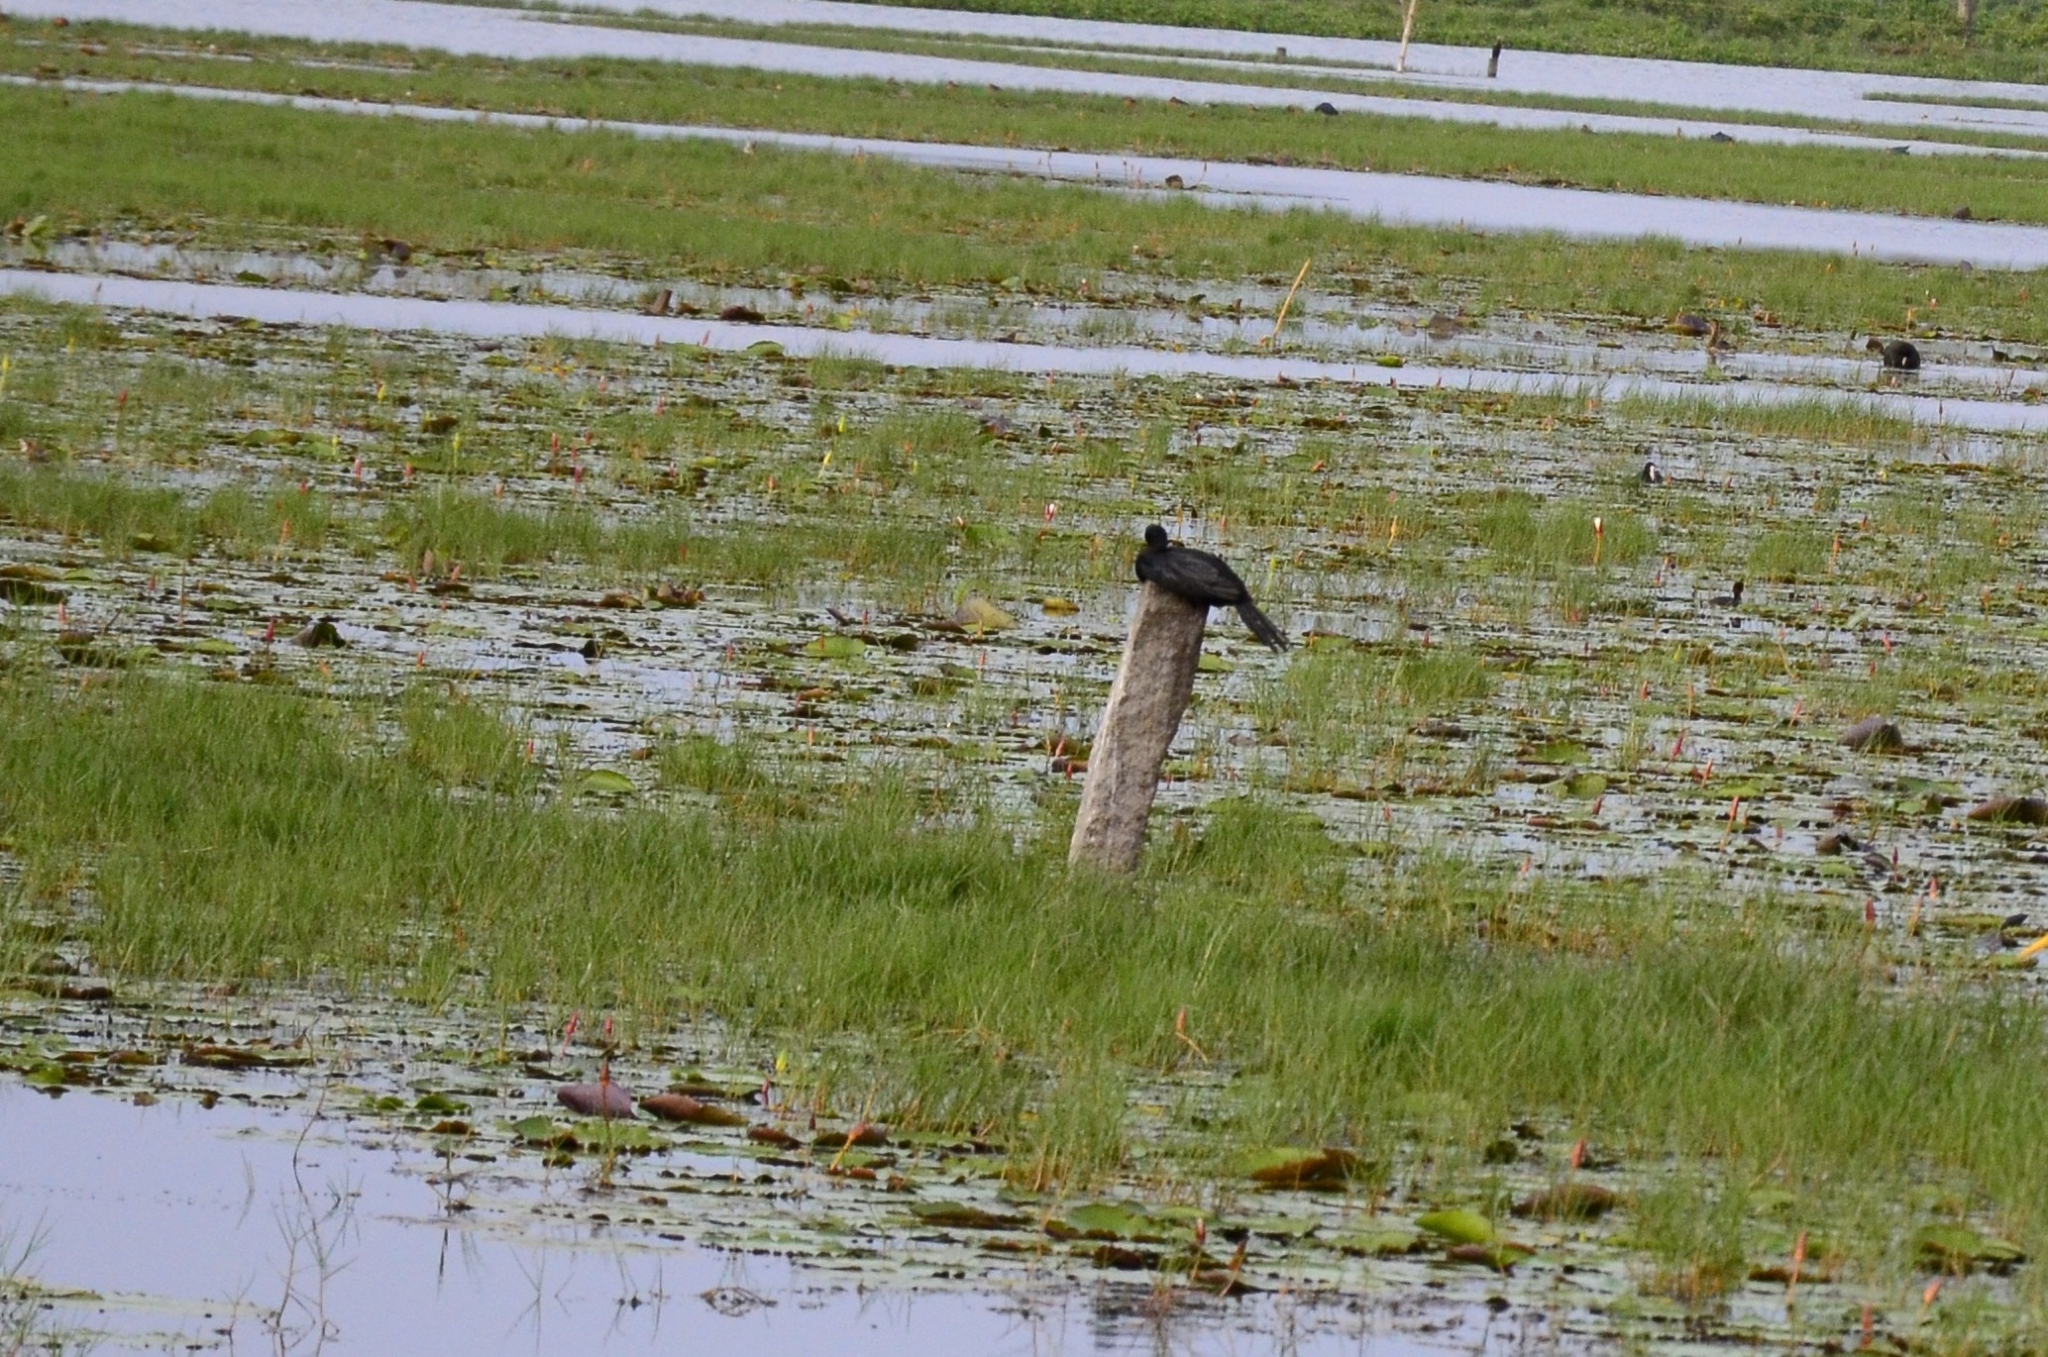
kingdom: Animalia
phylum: Chordata
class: Aves
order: Suliformes
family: Phalacrocoracidae
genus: Microcarbo
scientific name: Microcarbo niger
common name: Little cormorant
